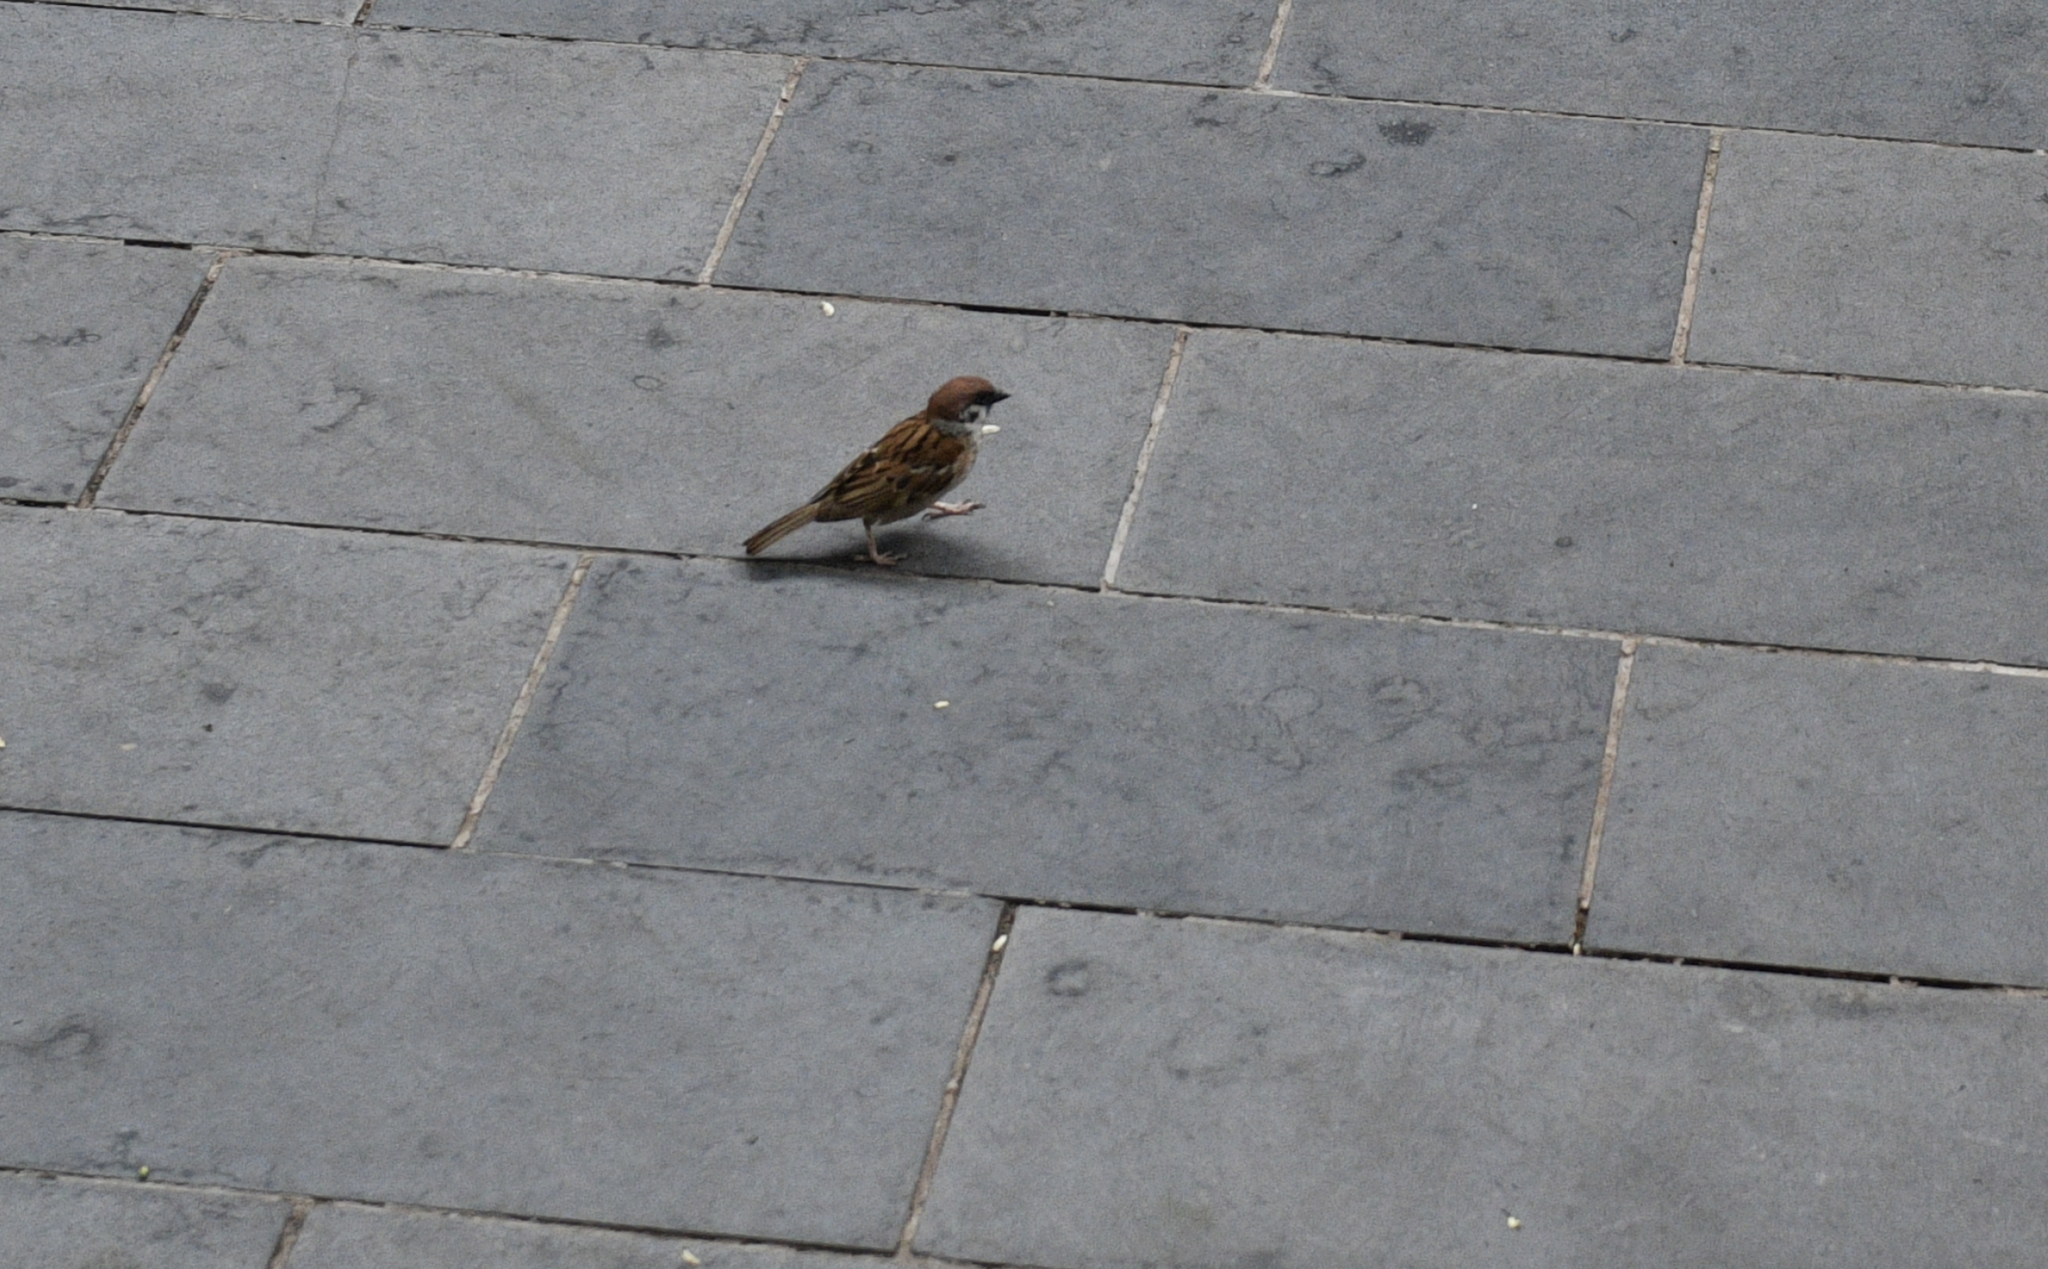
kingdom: Animalia
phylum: Chordata
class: Aves
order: Passeriformes
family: Passeridae
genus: Passer
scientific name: Passer montanus
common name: Eurasian tree sparrow
